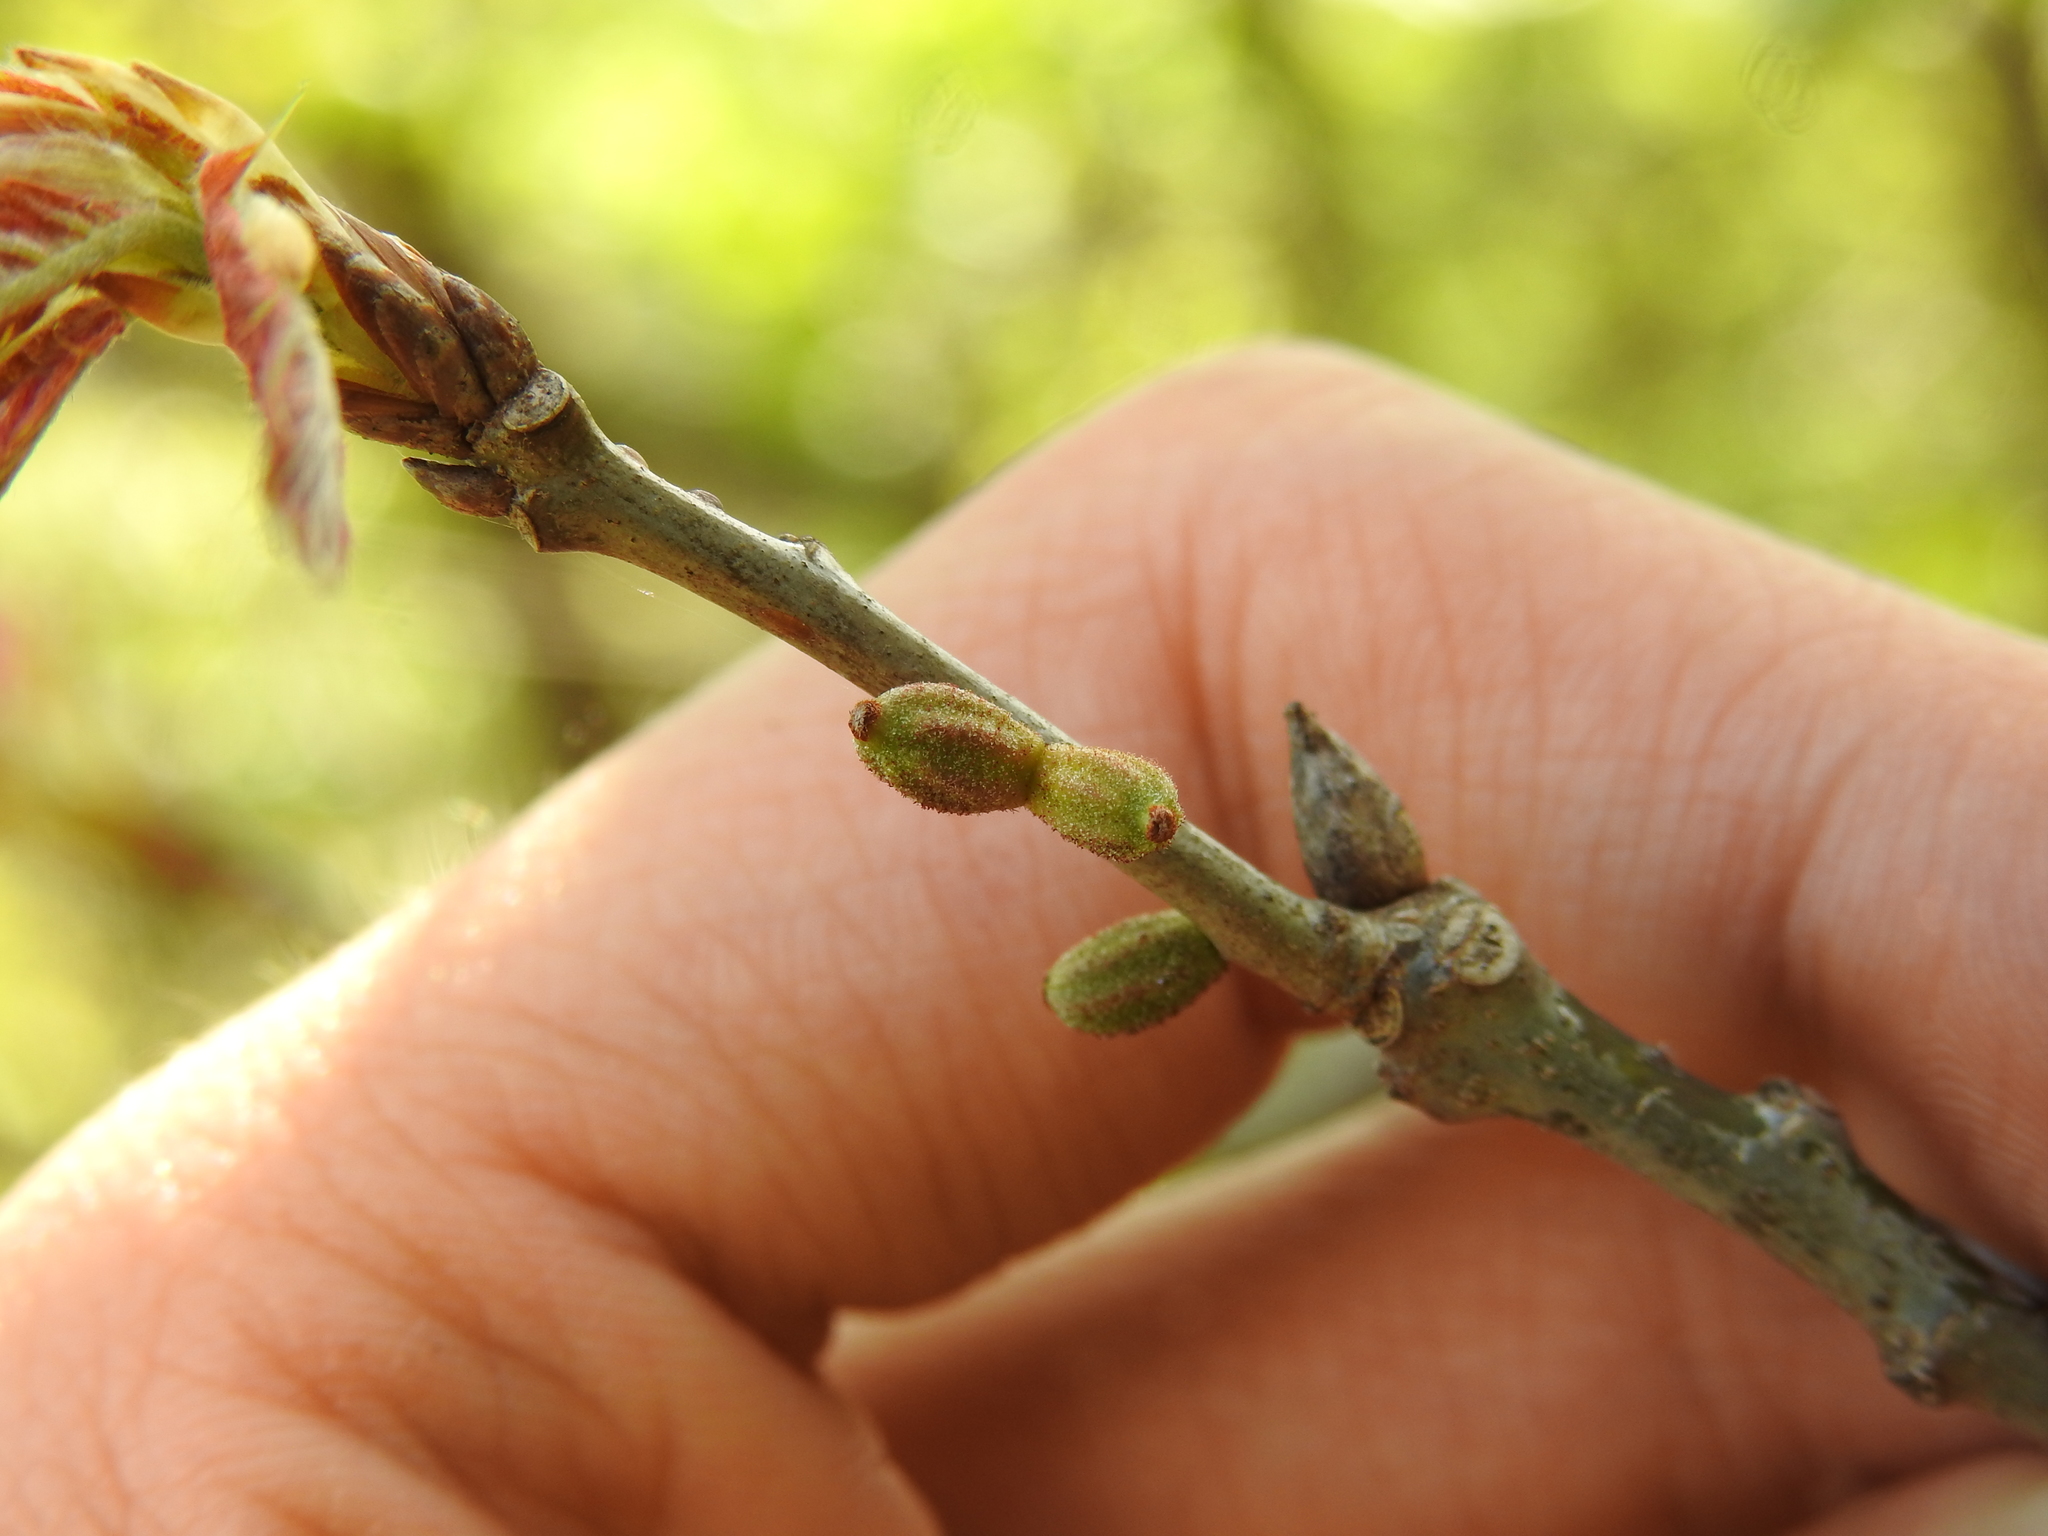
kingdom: Animalia
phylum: Arthropoda
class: Insecta
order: Hymenoptera
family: Cynipidae
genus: Callirhytis
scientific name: Callirhytis
